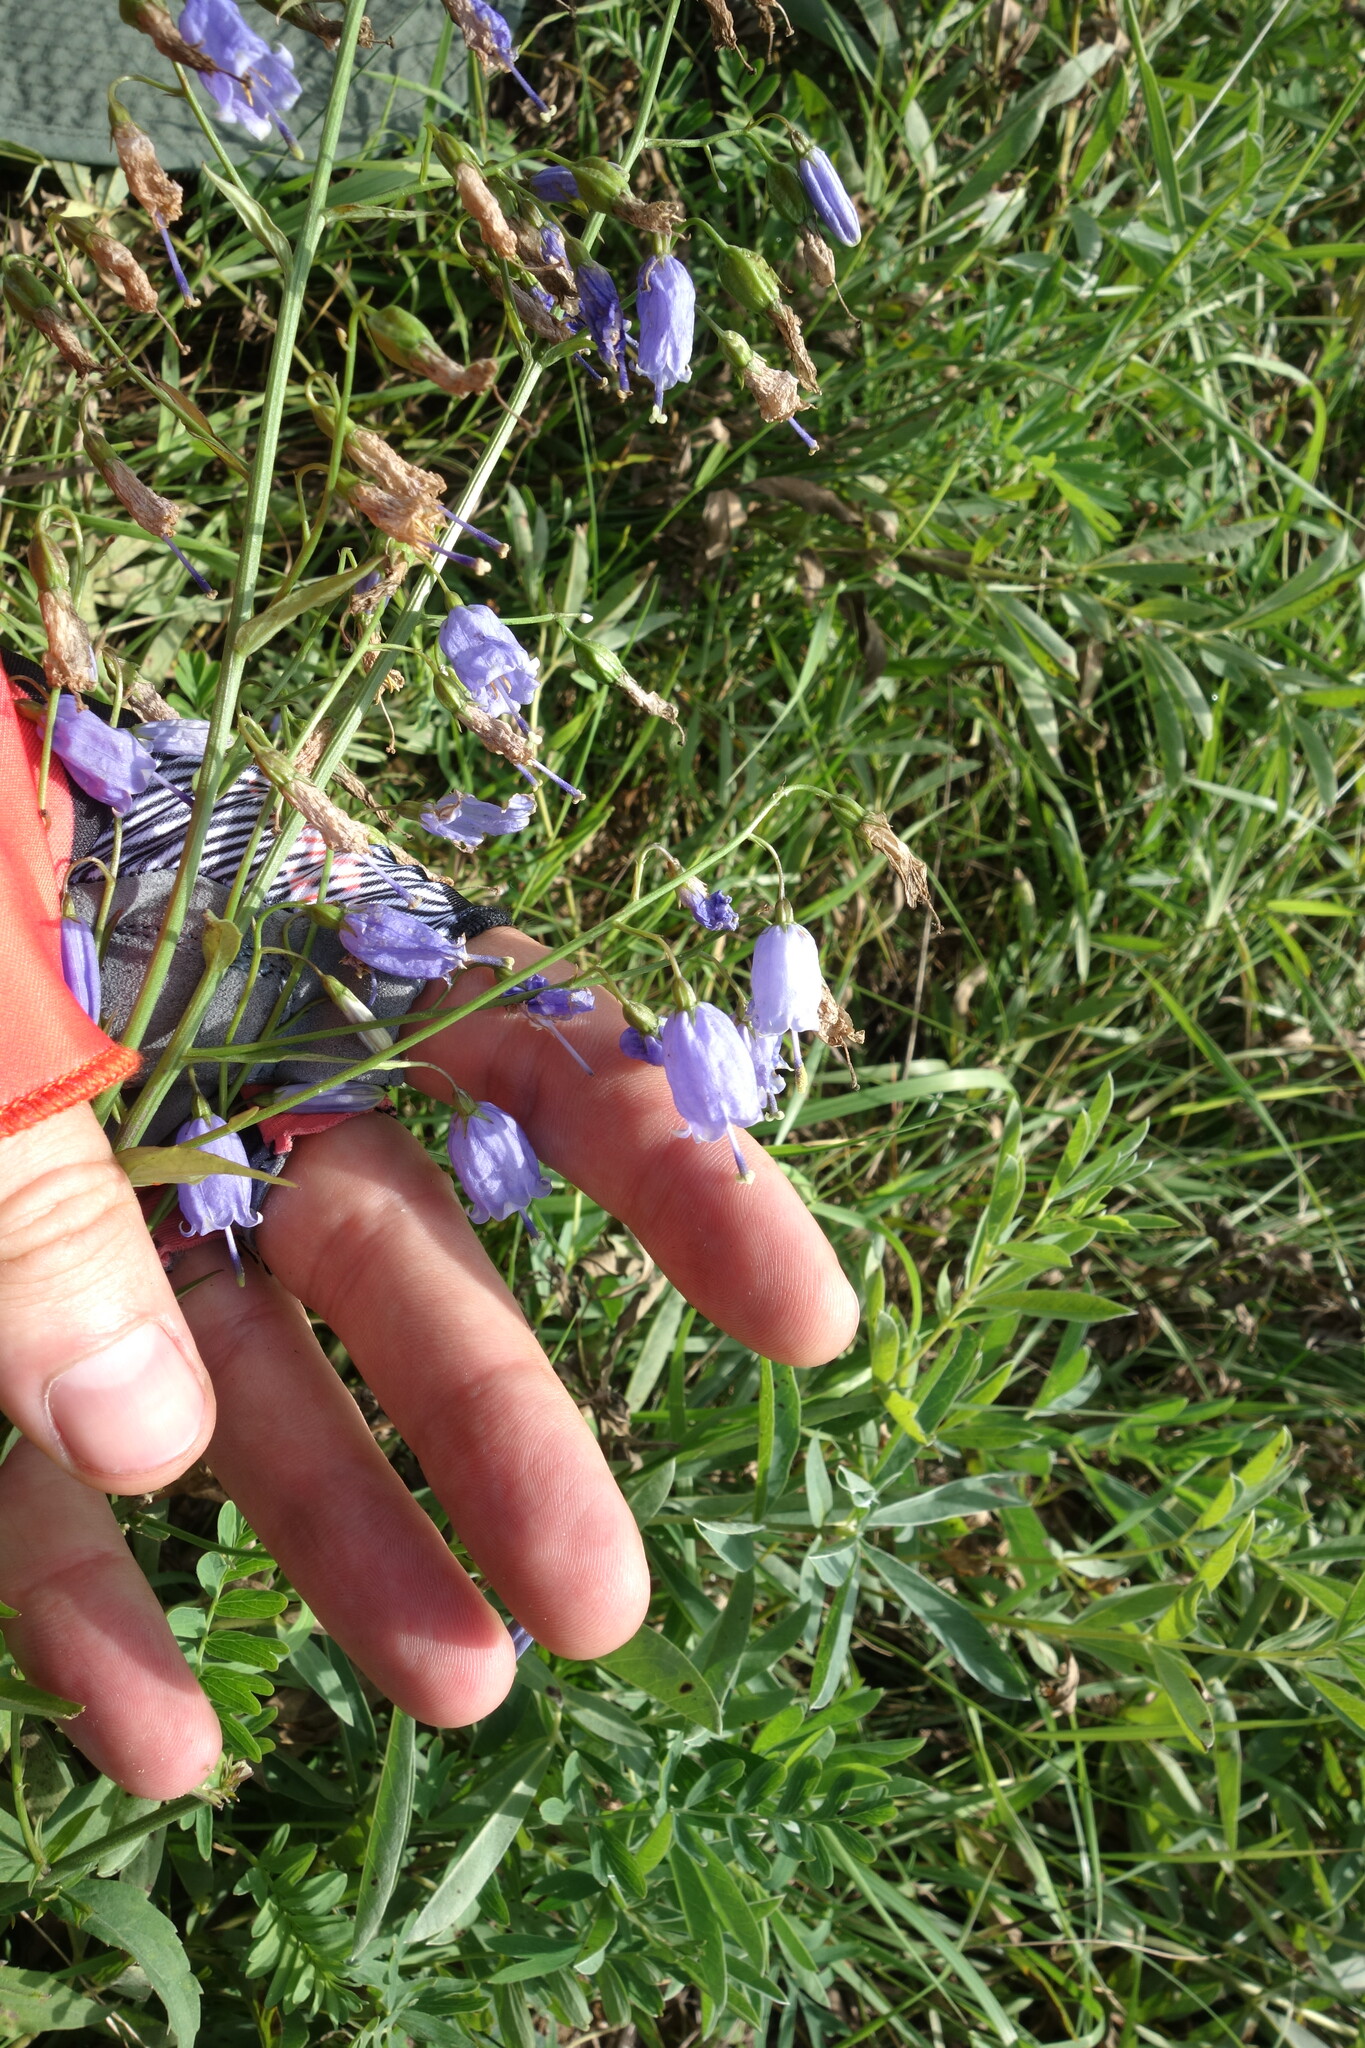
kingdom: Plantae
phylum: Tracheophyta
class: Magnoliopsida
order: Asterales
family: Campanulaceae
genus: Adenophora
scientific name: Adenophora stenanthina
